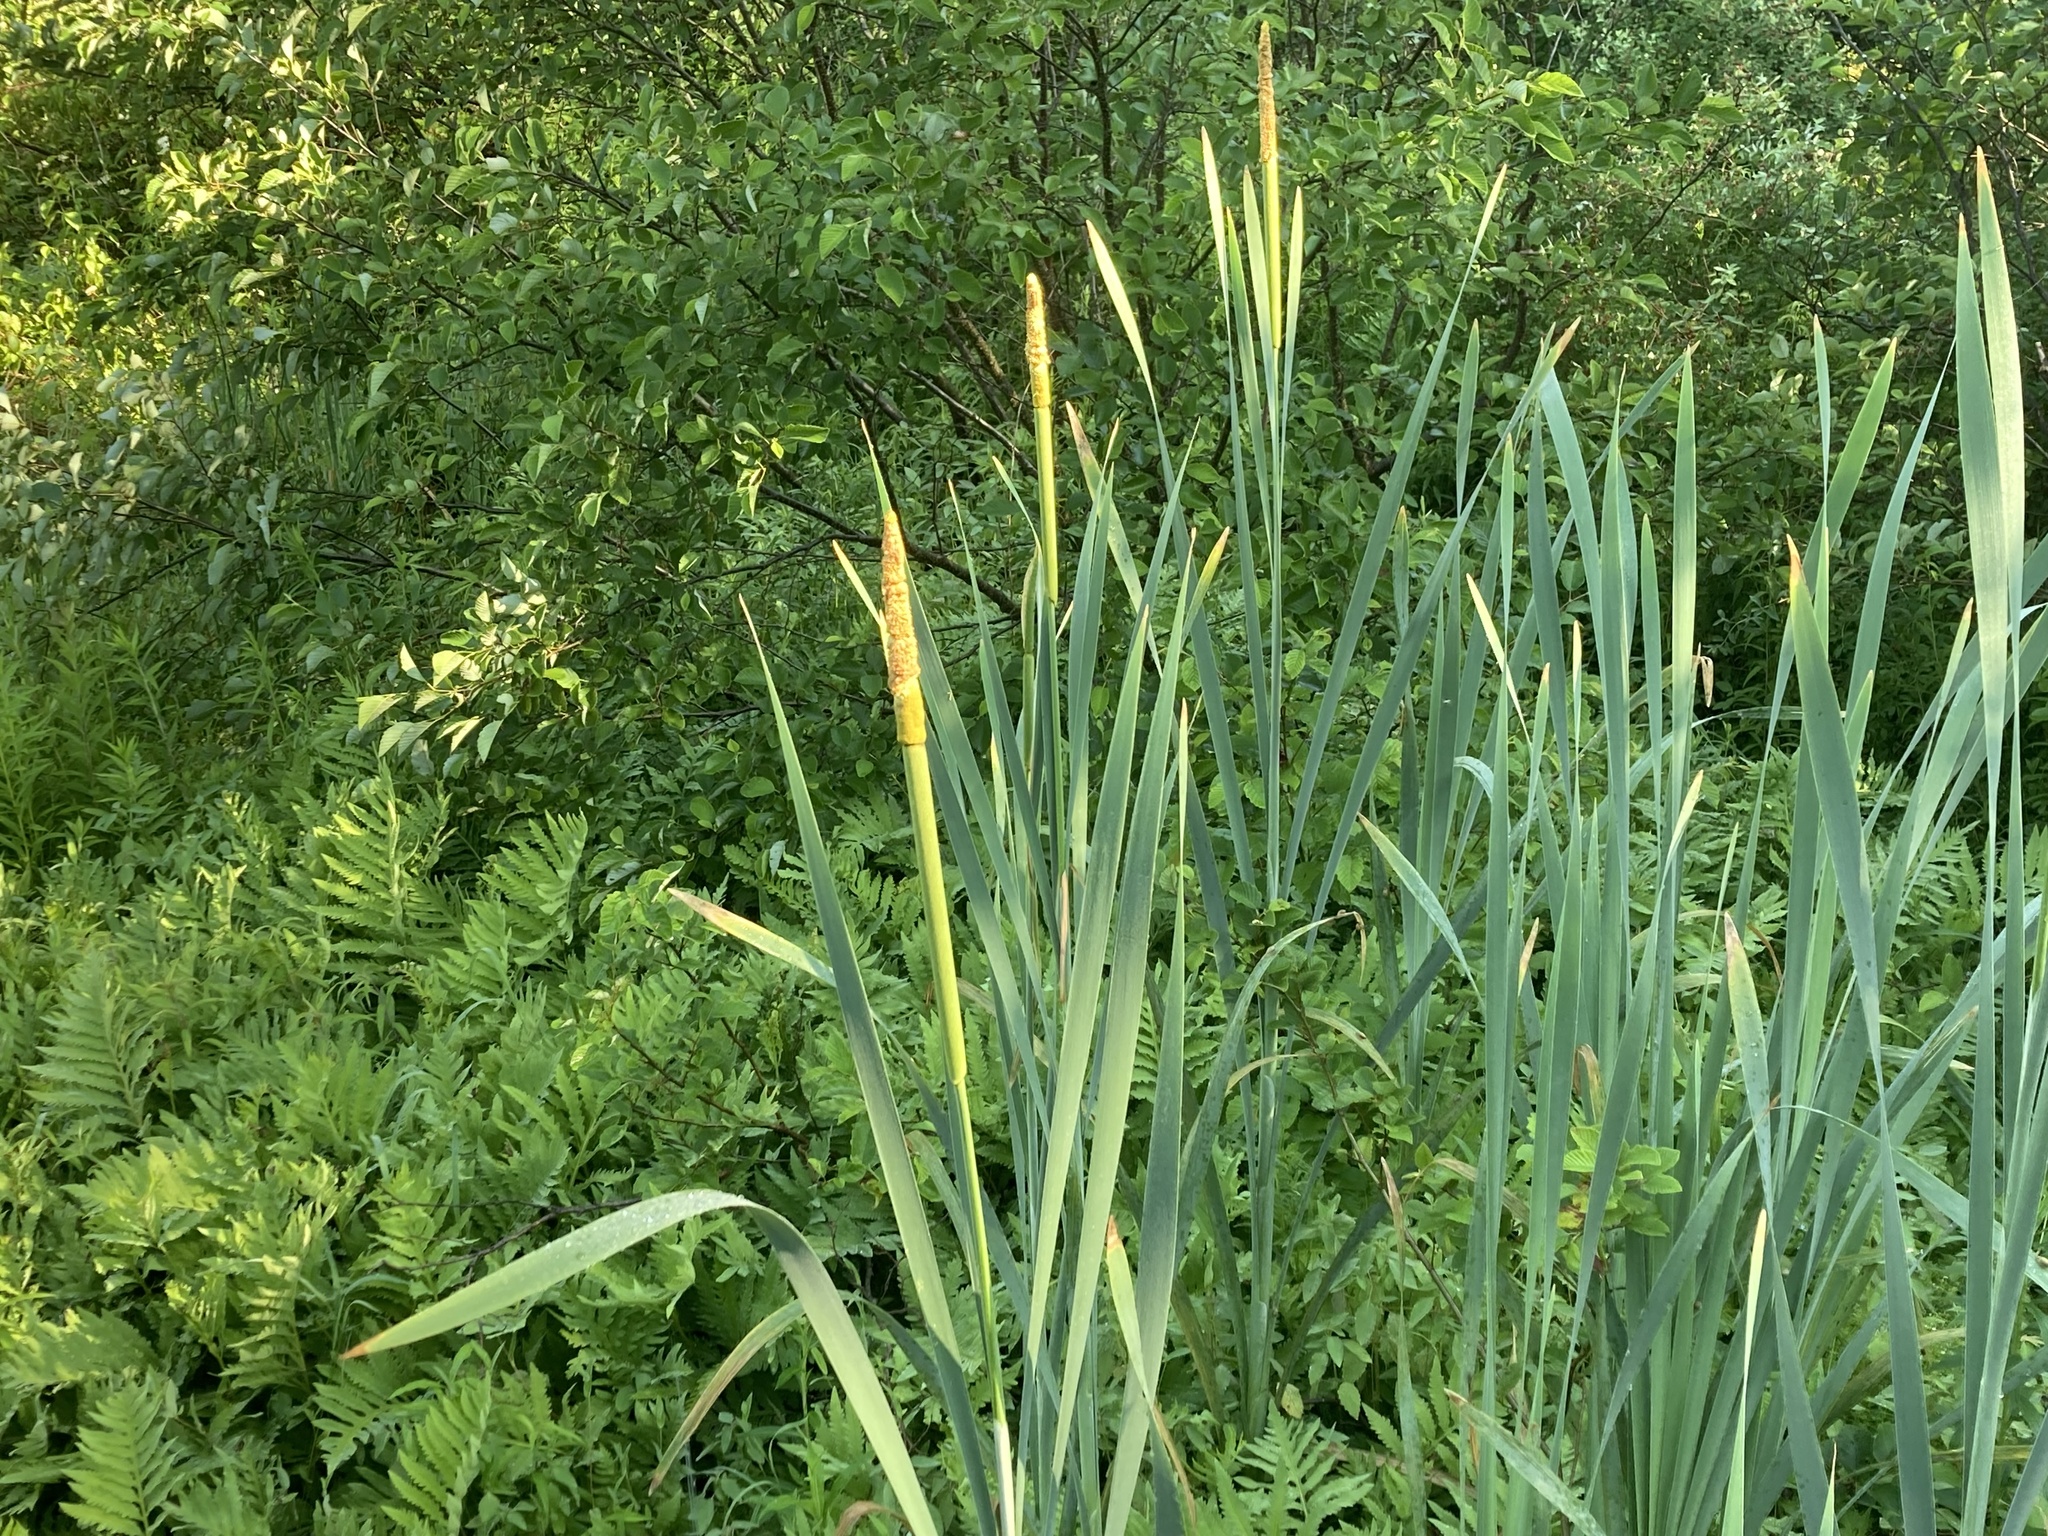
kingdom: Plantae
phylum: Tracheophyta
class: Liliopsida
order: Poales
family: Typhaceae
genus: Typha
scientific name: Typha latifolia
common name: Broadleaf cattail
